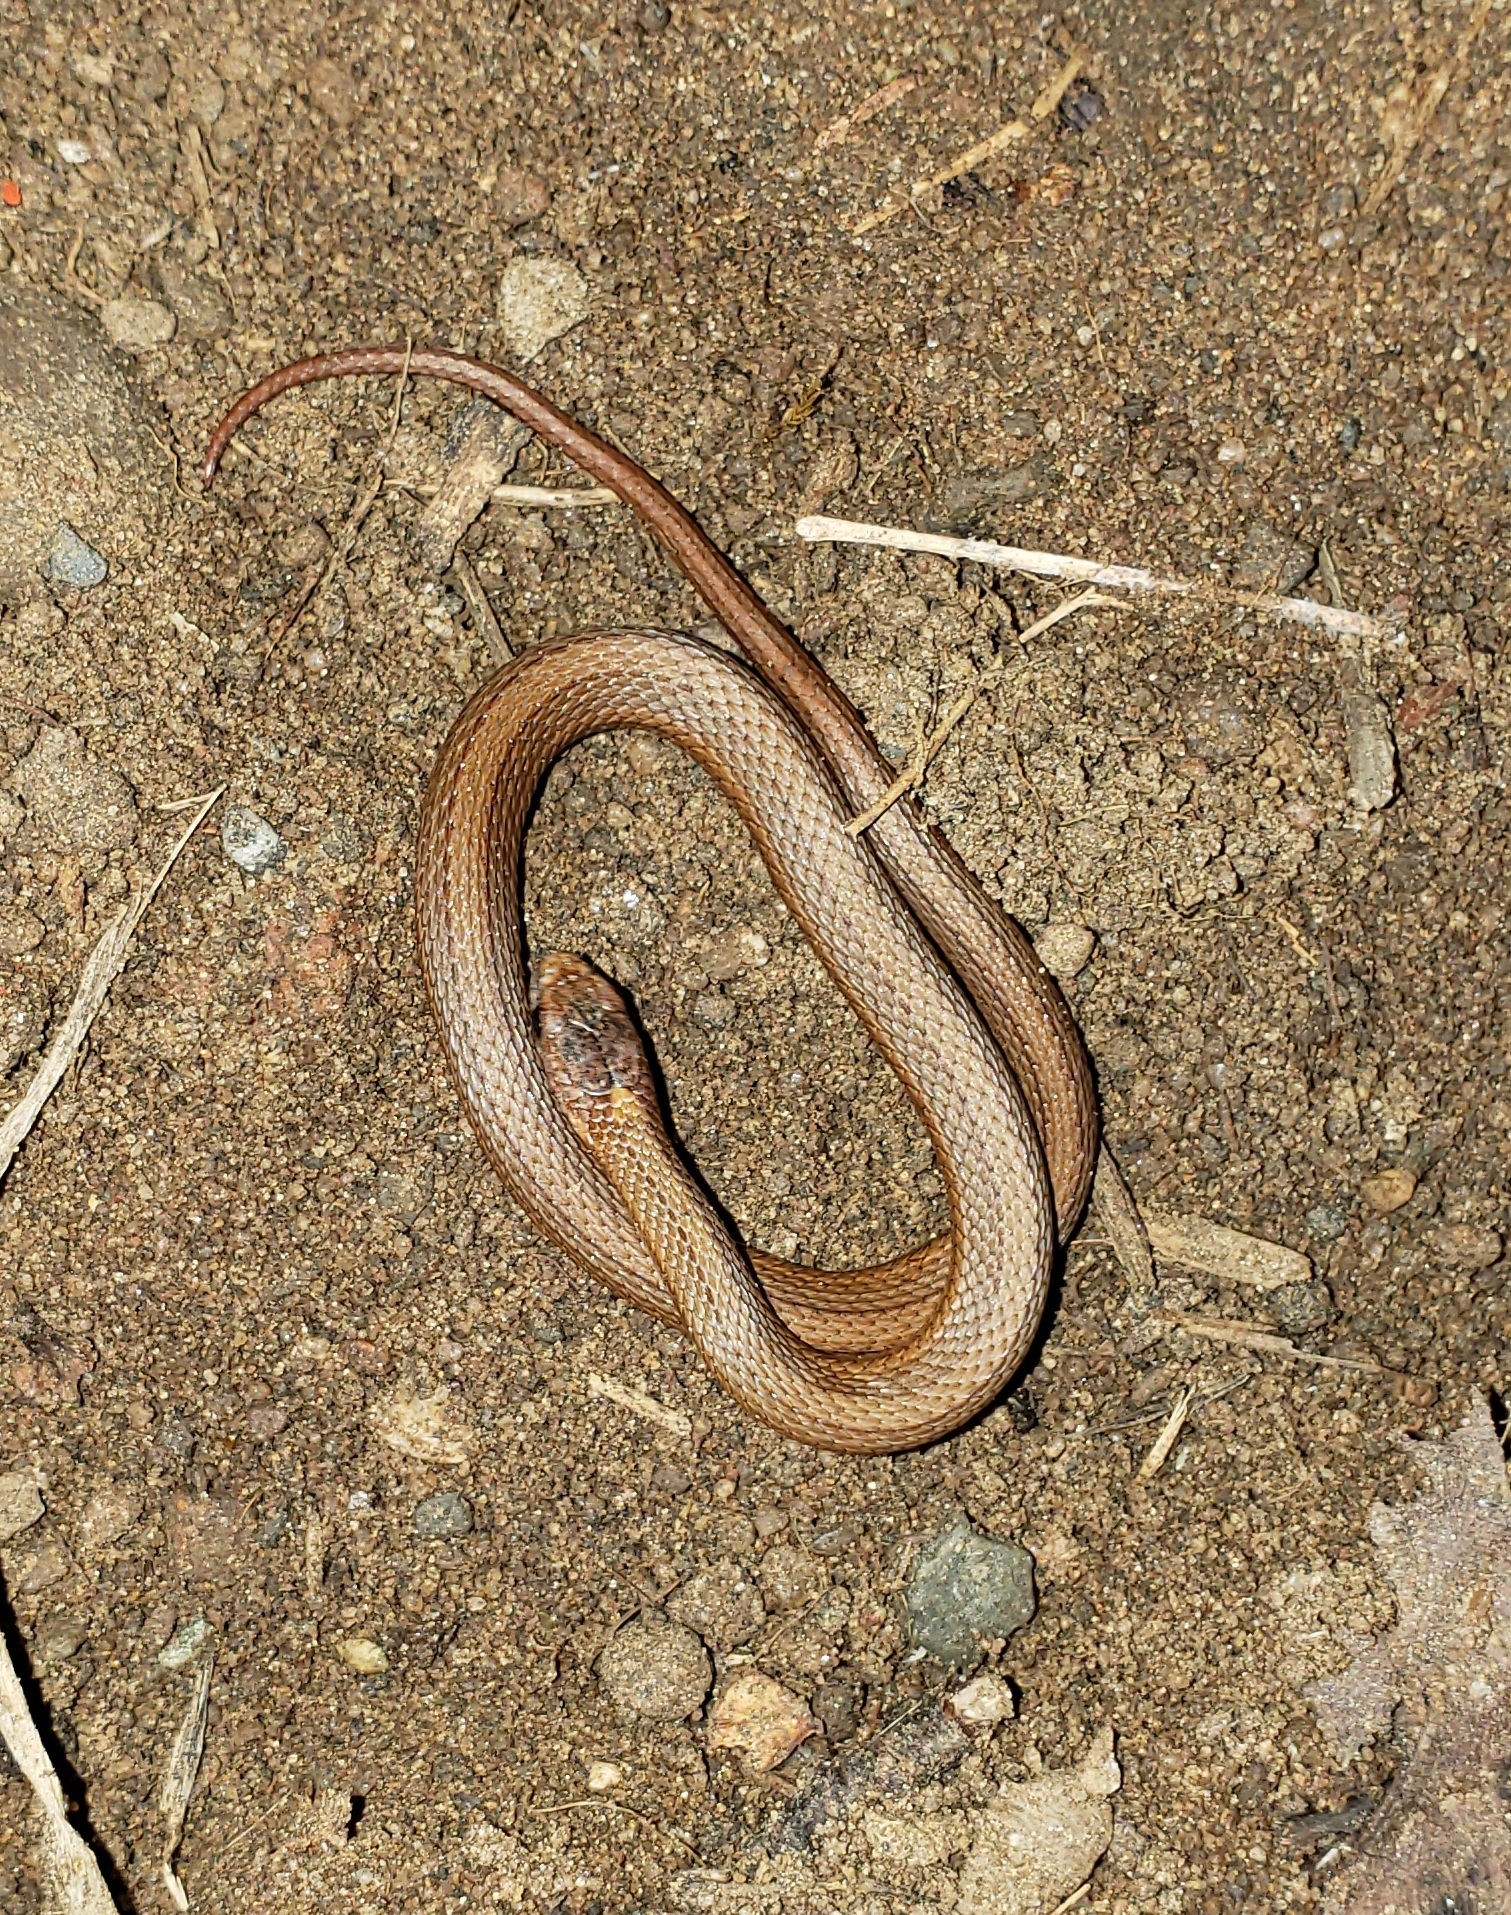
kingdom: Animalia
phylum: Chordata
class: Squamata
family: Colubridae
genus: Storeria
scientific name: Storeria occipitomaculata
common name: Redbelly snake
